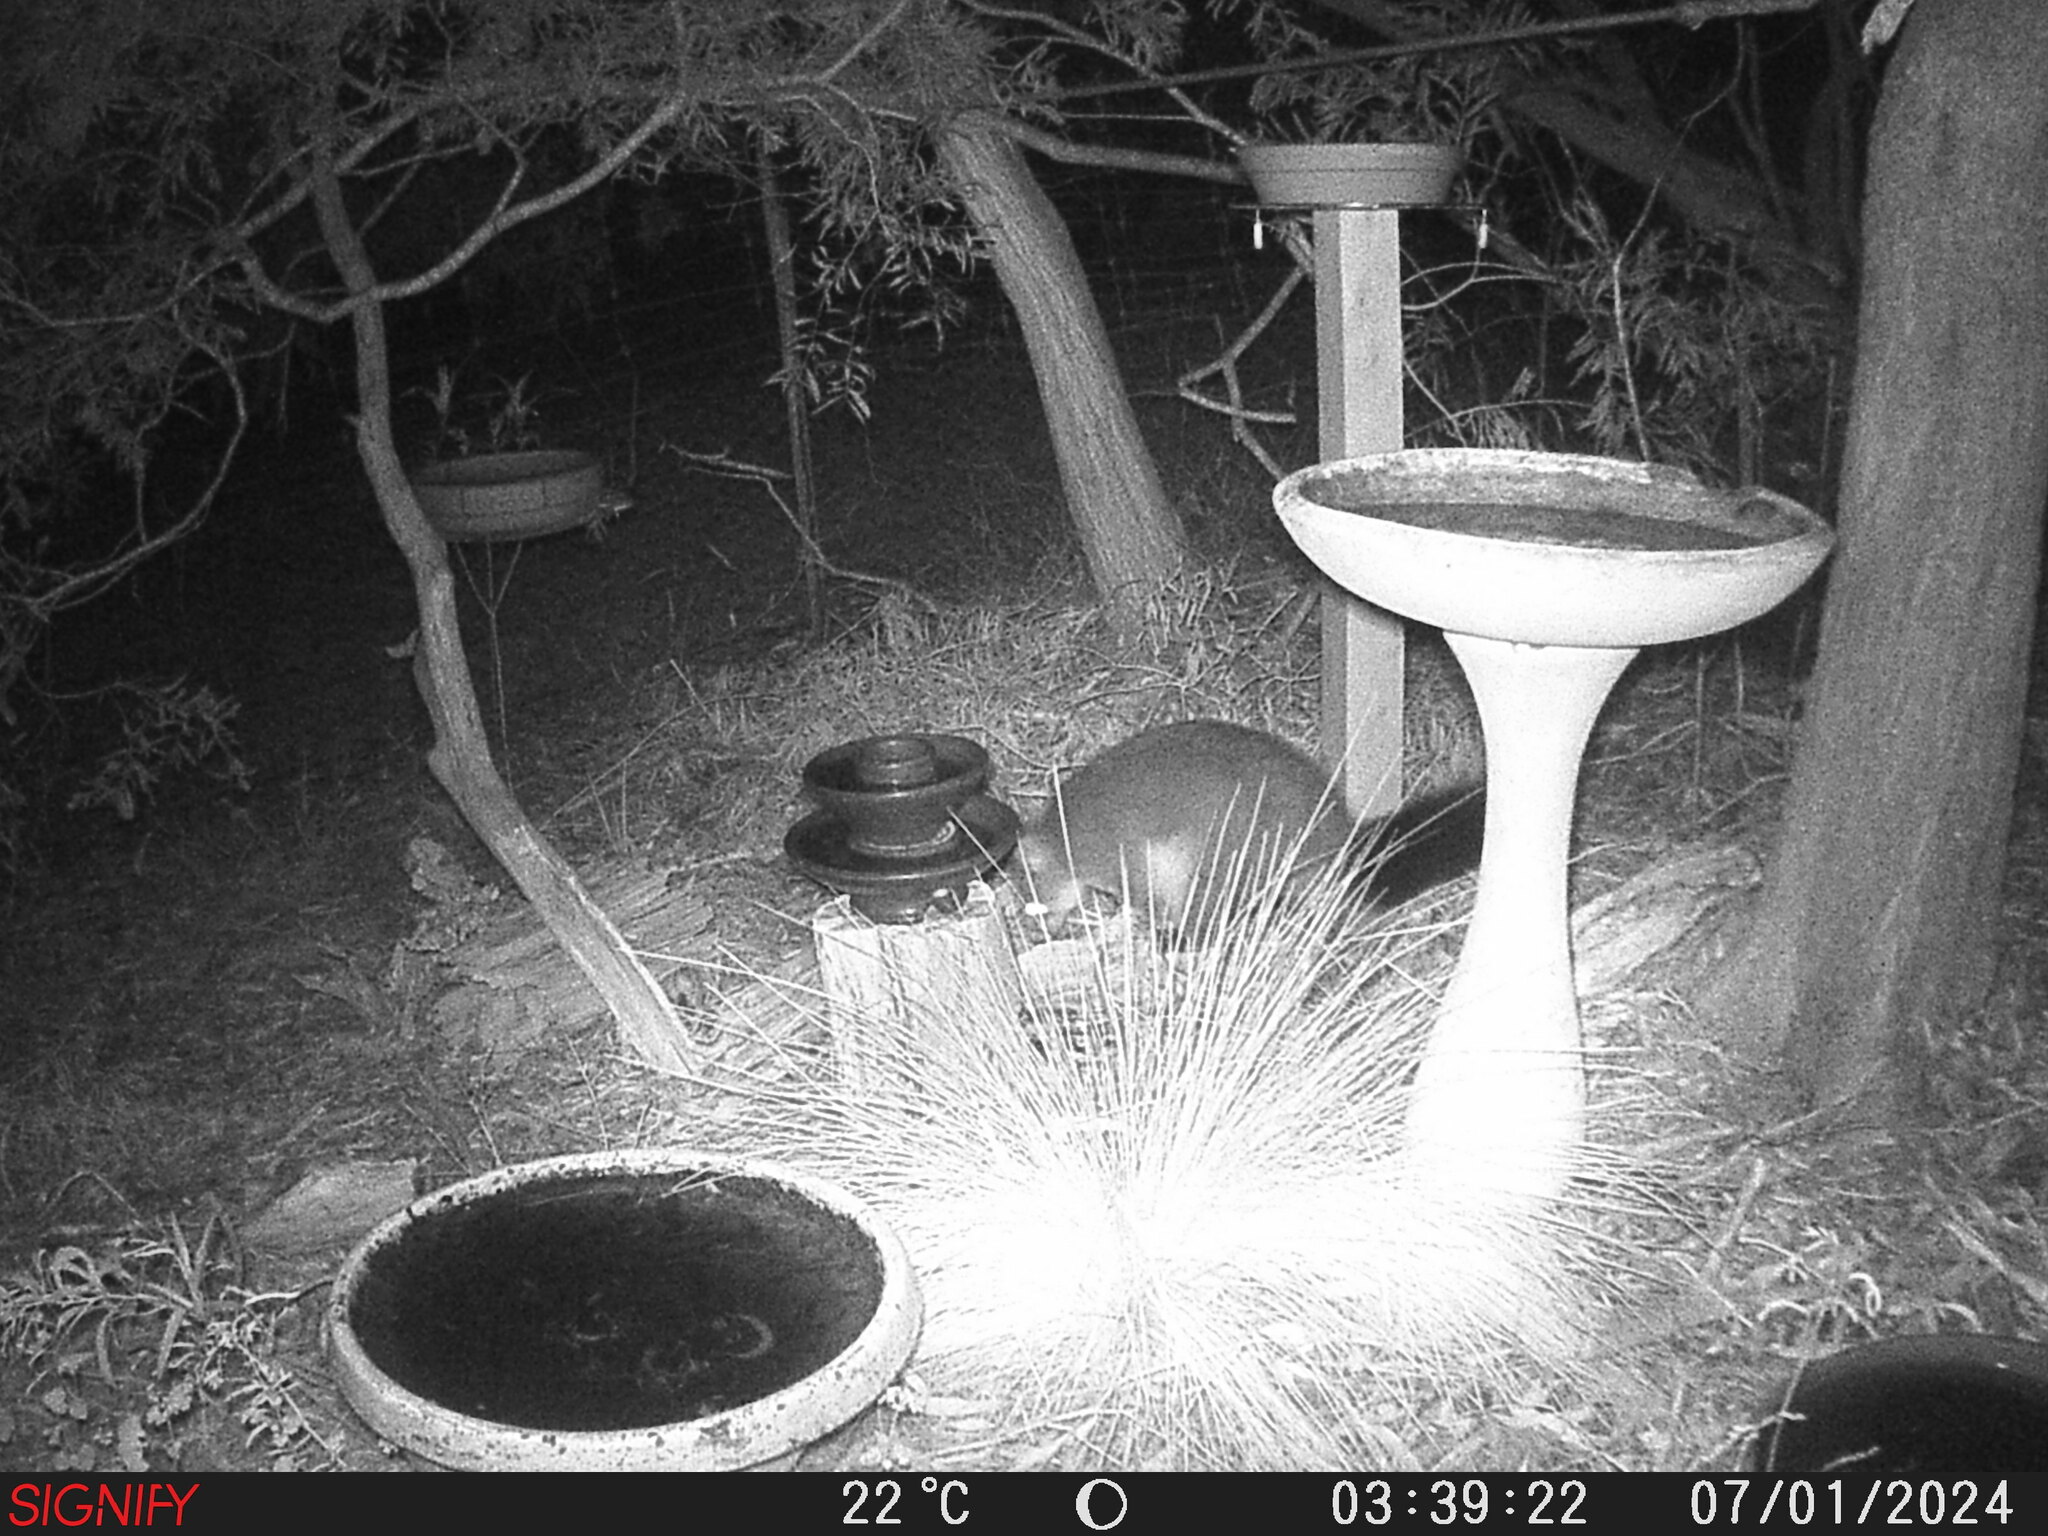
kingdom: Animalia
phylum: Chordata
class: Mammalia
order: Diprotodontia
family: Phalangeridae
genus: Trichosurus
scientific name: Trichosurus vulpecula
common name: Common brushtail
